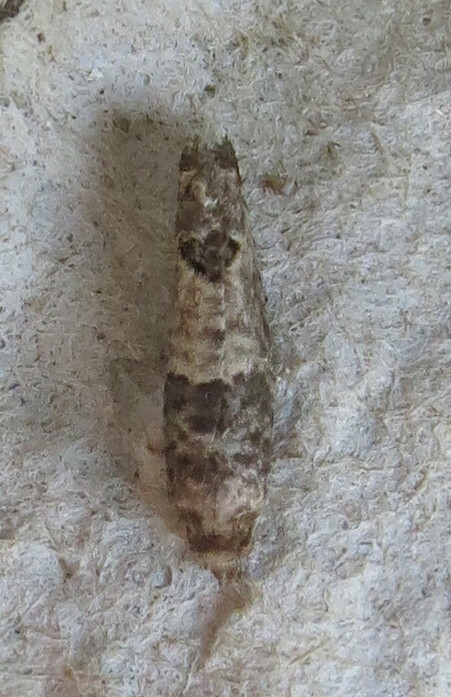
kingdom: Animalia
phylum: Arthropoda
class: Insecta
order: Lepidoptera
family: Tortricidae
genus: Cydia
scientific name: Cydia pomonella
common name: Codling moth
